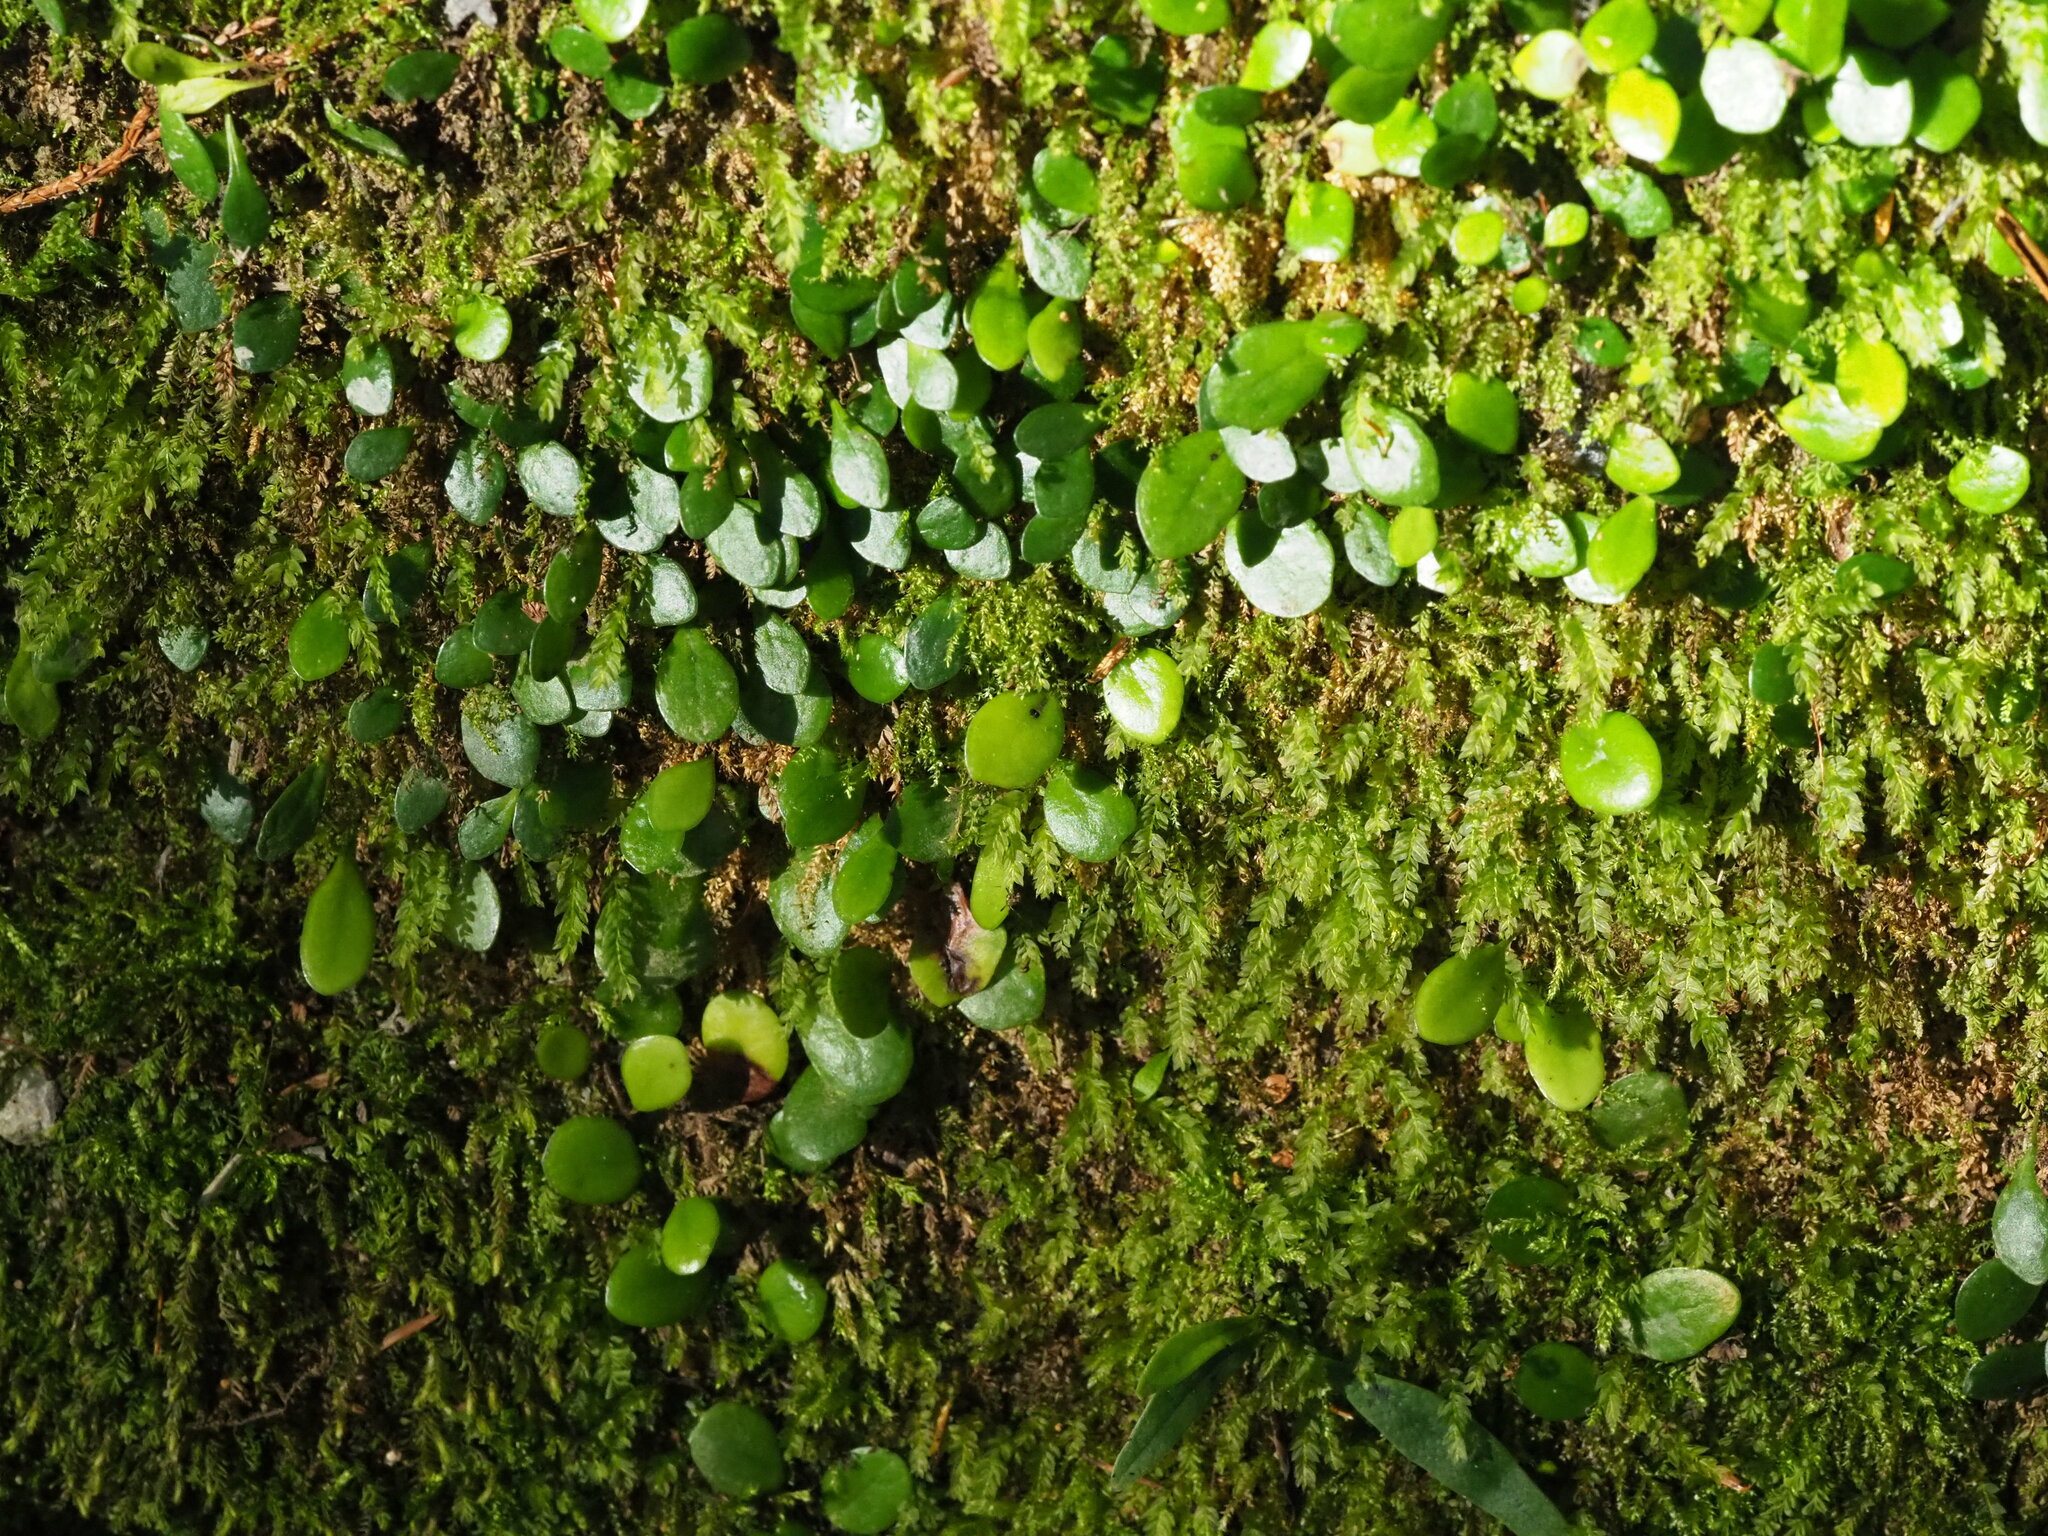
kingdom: Plantae
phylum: Tracheophyta
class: Polypodiopsida
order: Polypodiales
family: Polypodiaceae
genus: Lepisorus
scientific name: Lepisorus microphyllus
